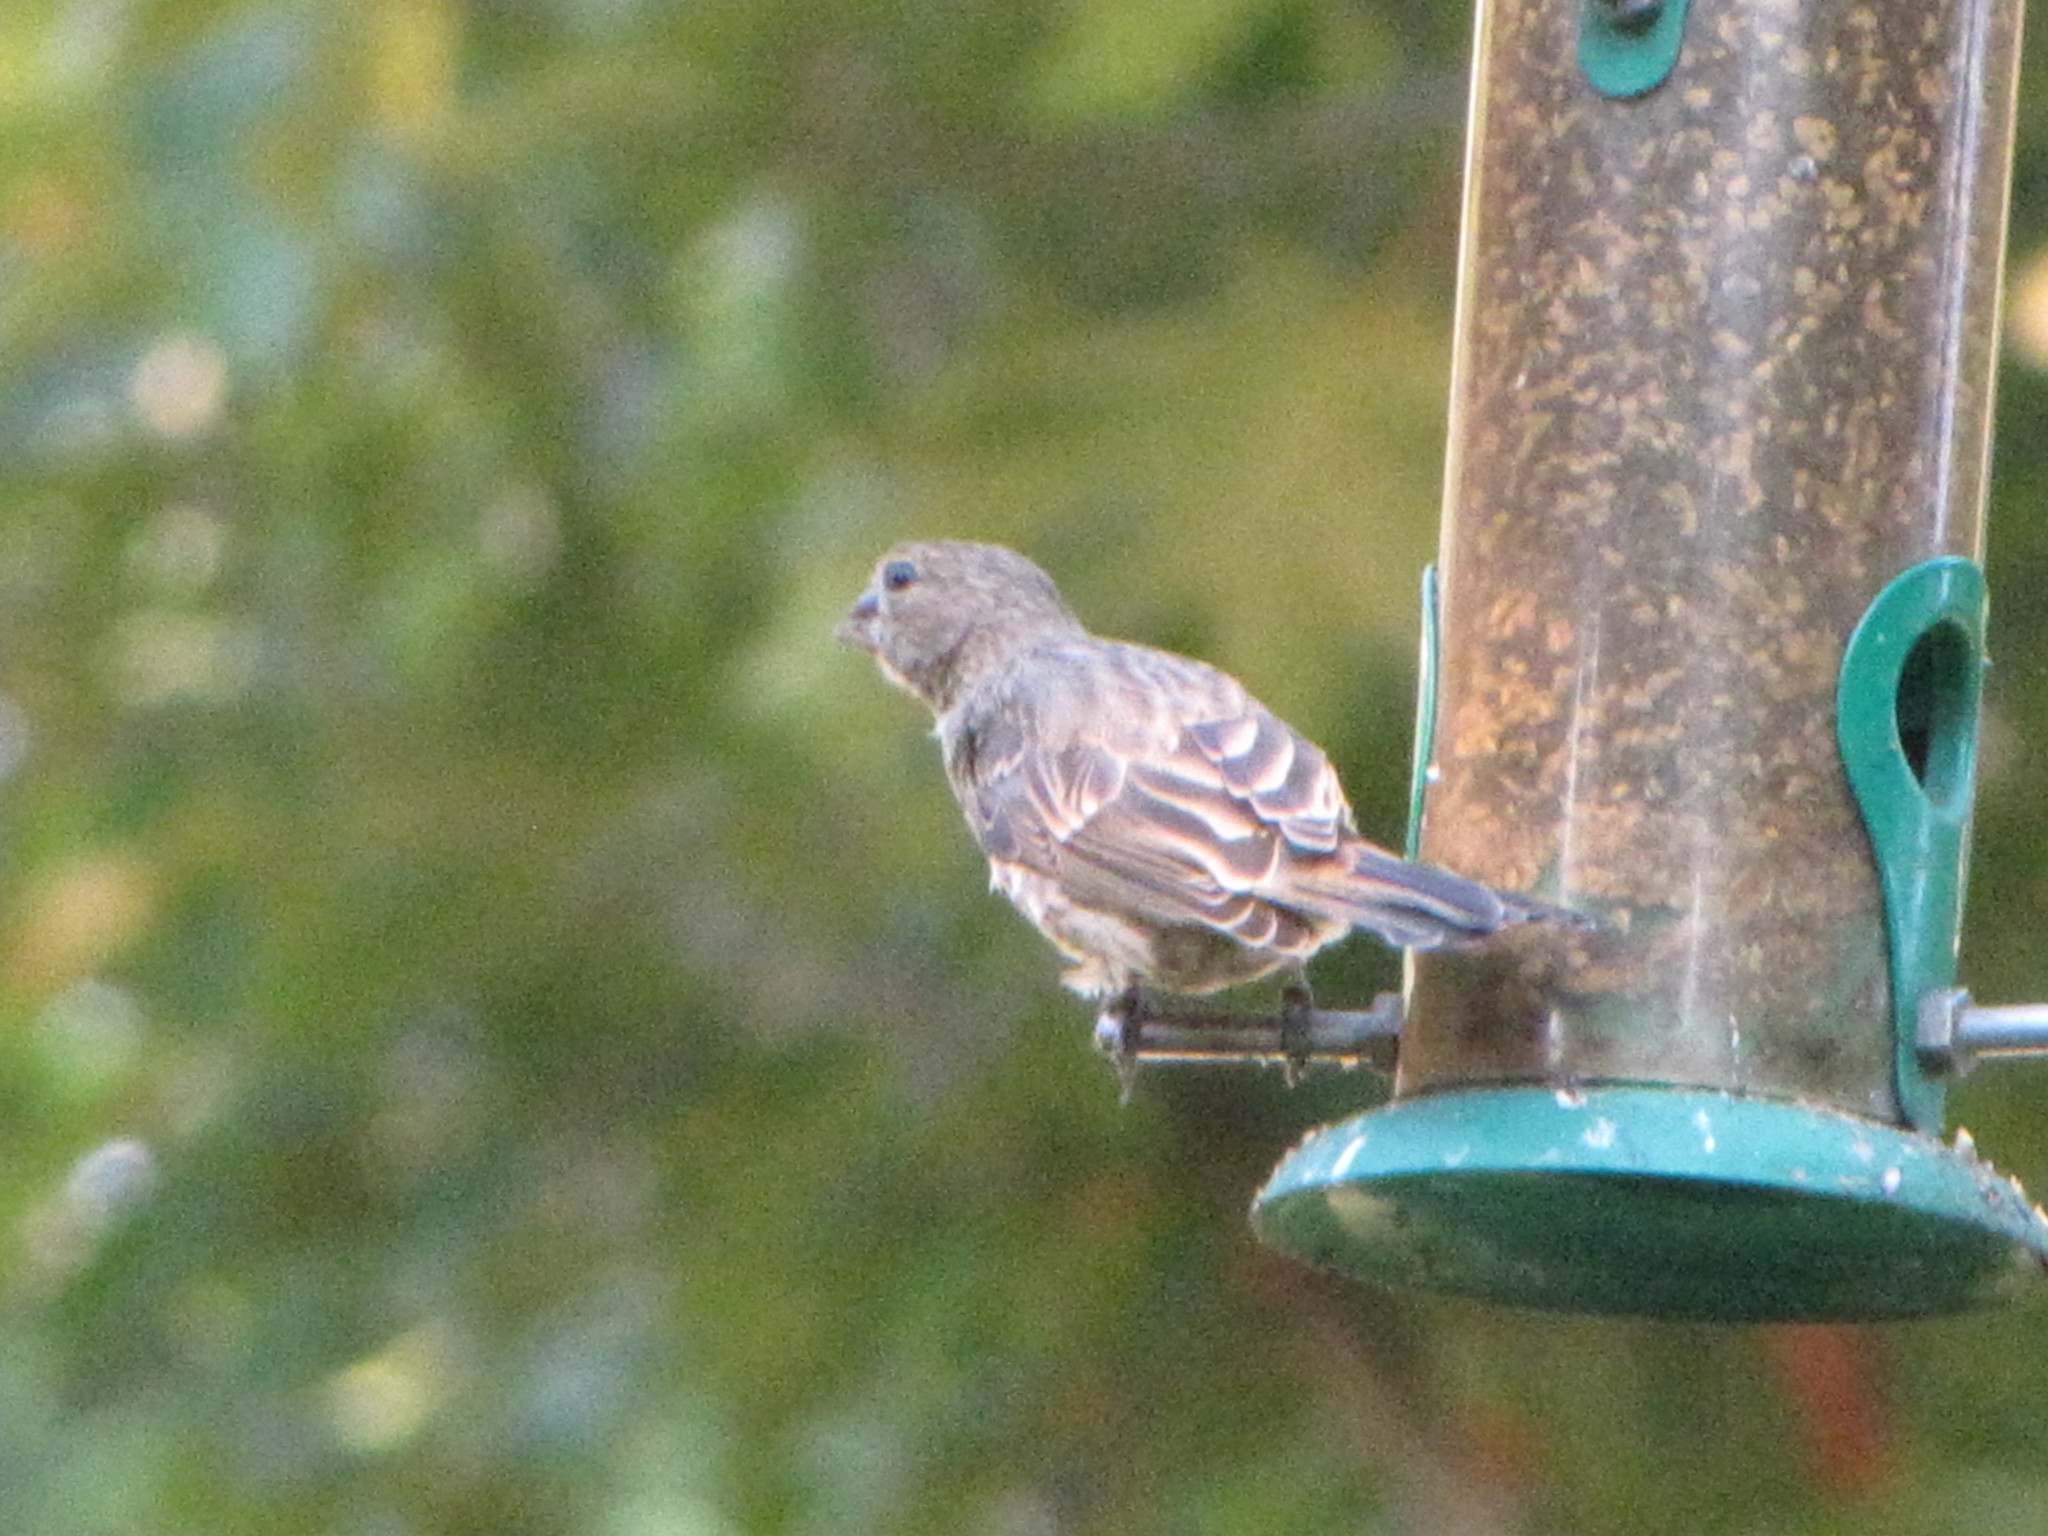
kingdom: Animalia
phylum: Chordata
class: Aves
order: Passeriformes
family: Fringillidae
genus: Haemorhous
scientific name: Haemorhous mexicanus
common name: House finch
